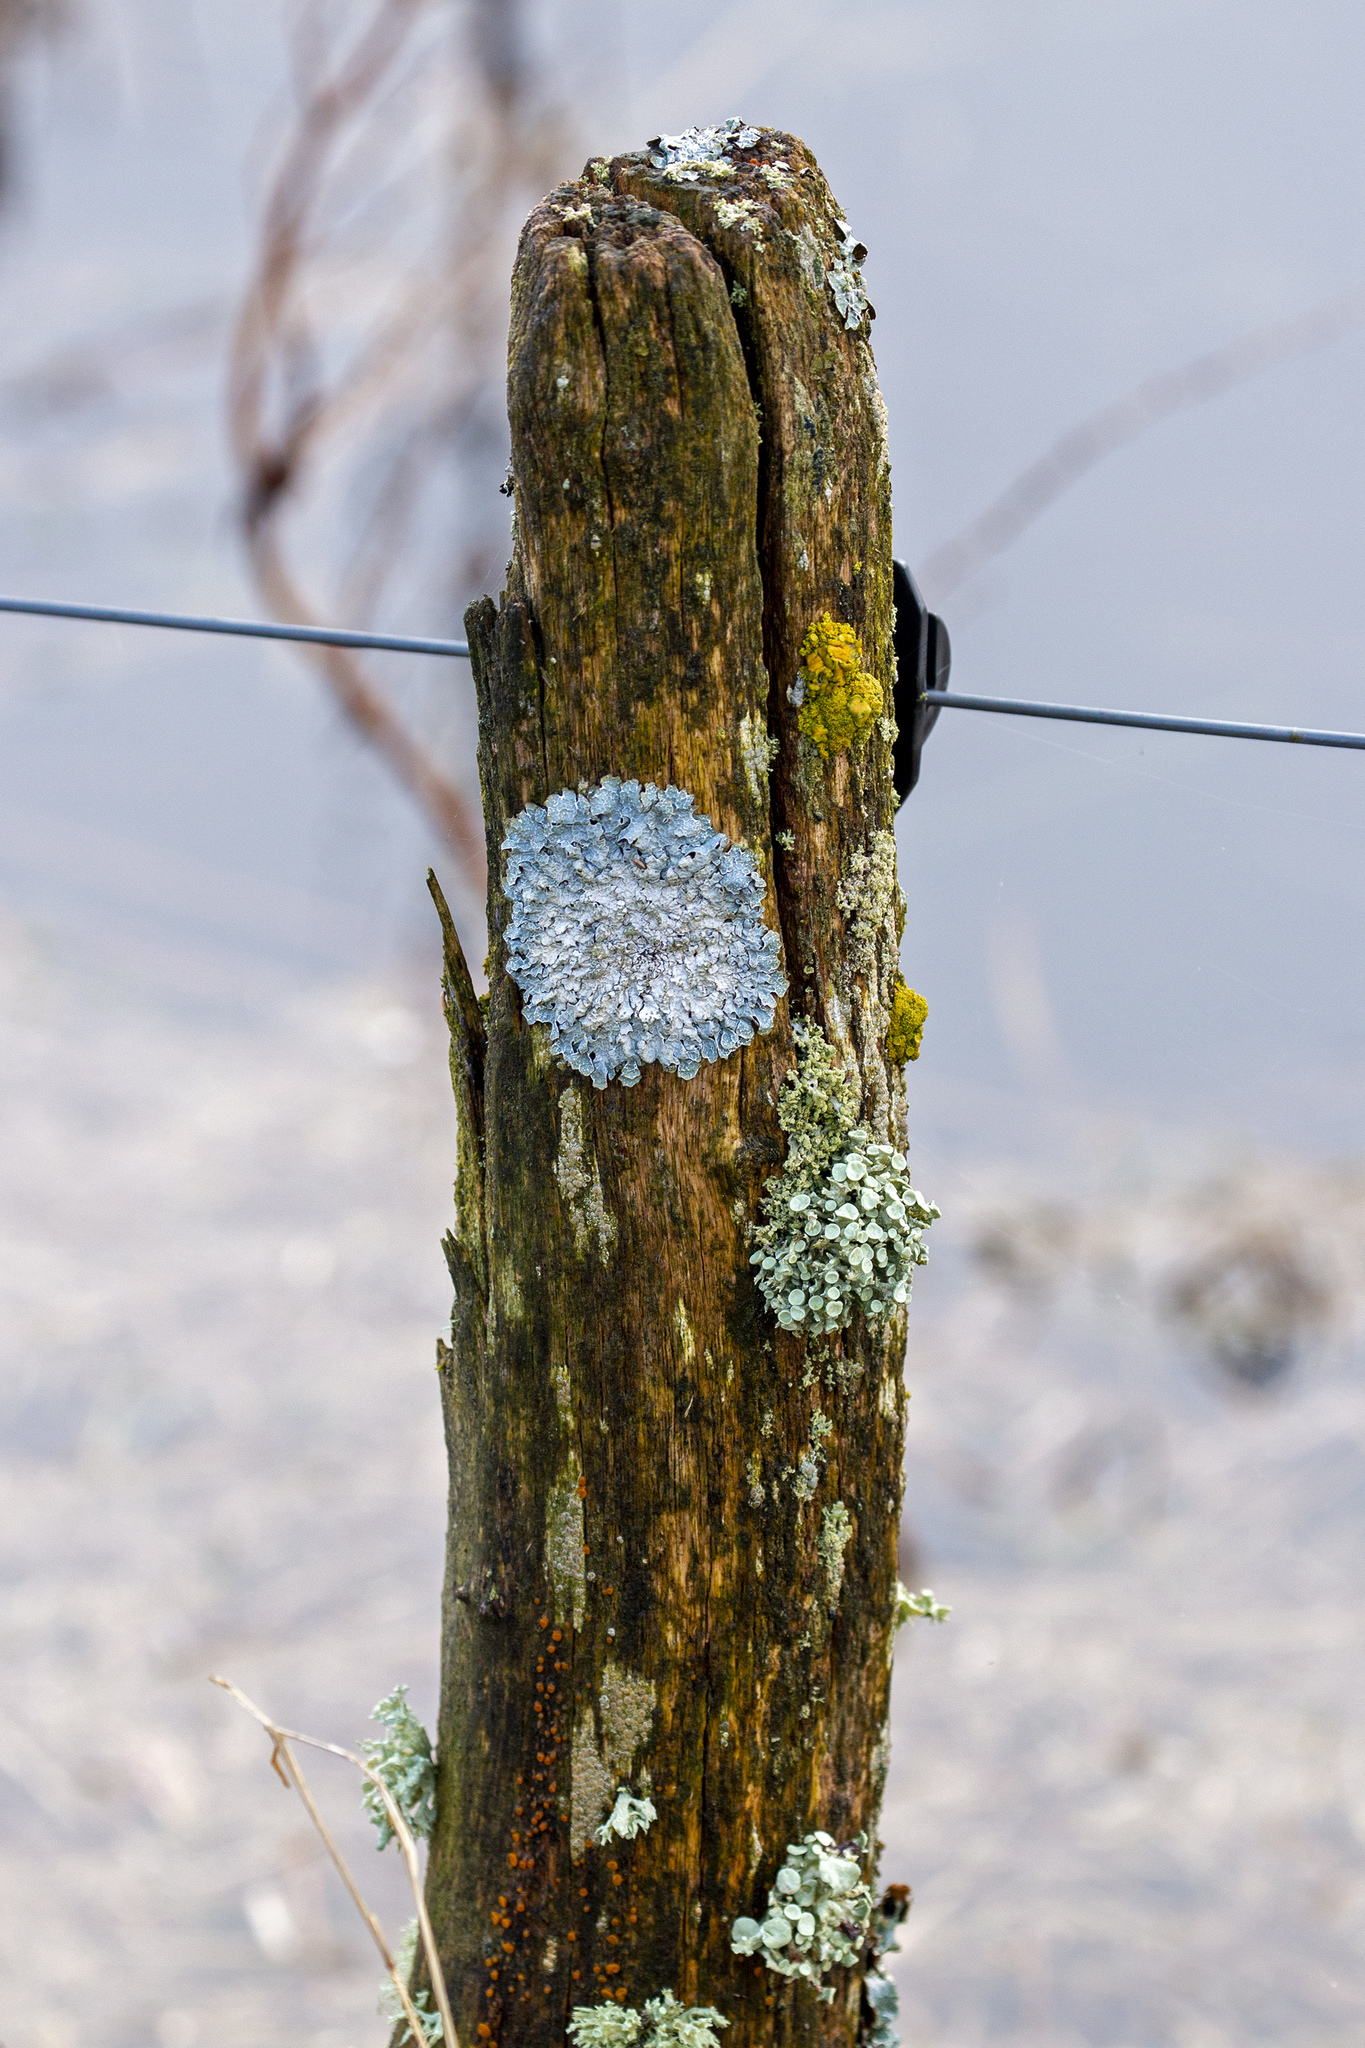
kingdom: Fungi
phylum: Ascomycota
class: Lecanoromycetes
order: Lecanorales
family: Parmeliaceae
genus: Parmelia
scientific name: Parmelia sulcata
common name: Netted shield lichen
